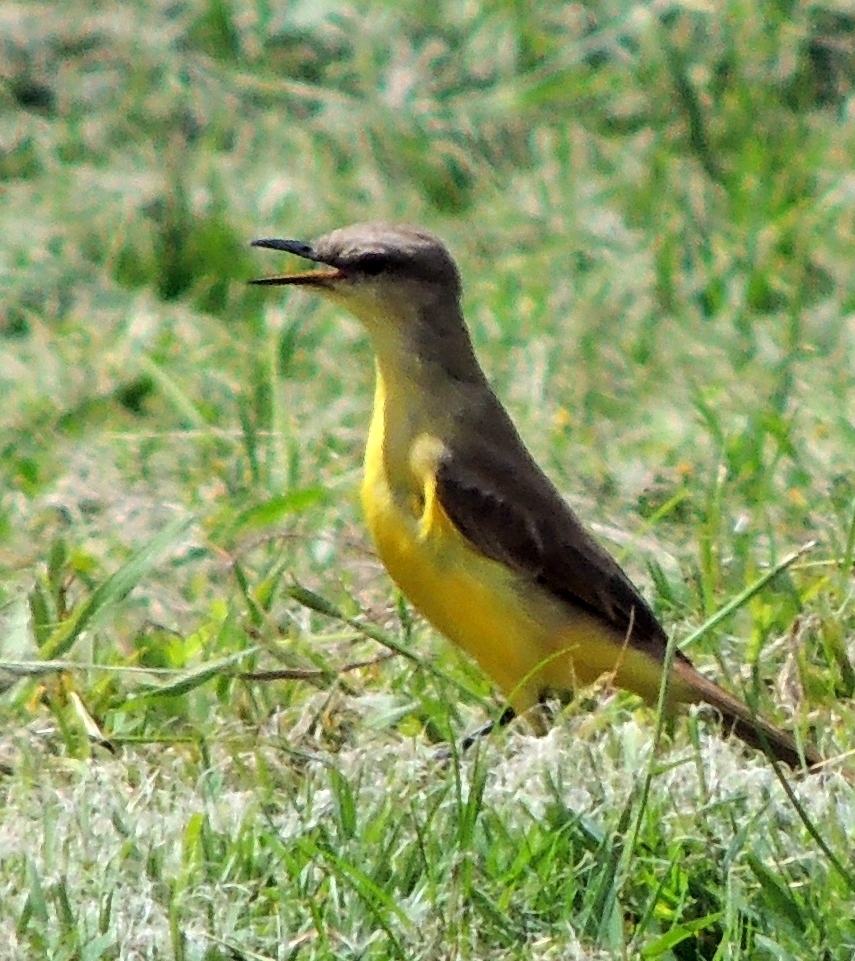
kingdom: Animalia
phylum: Chordata
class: Aves
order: Passeriformes
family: Tyrannidae
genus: Machetornis
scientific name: Machetornis rixosa
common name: Cattle tyrant
